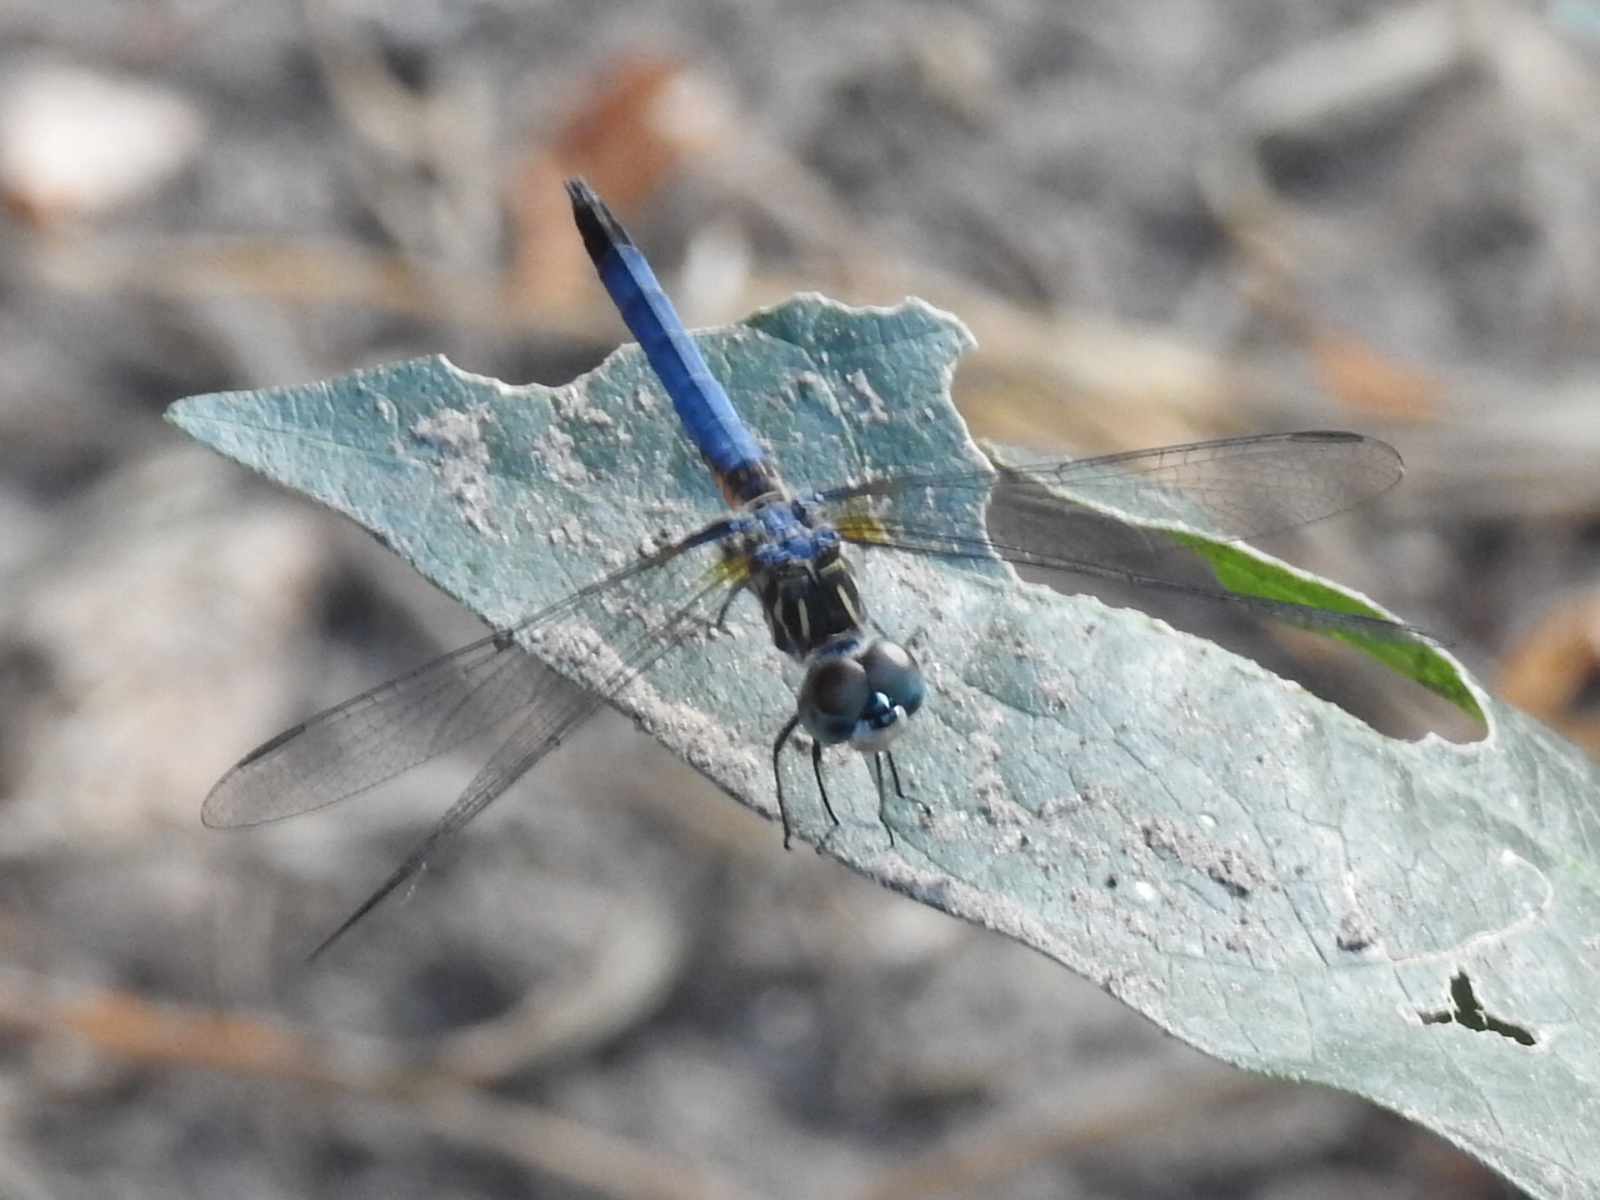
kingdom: Animalia
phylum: Arthropoda
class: Insecta
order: Odonata
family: Libellulidae
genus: Pachydiplax
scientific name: Pachydiplax longipennis
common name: Blue dasher
